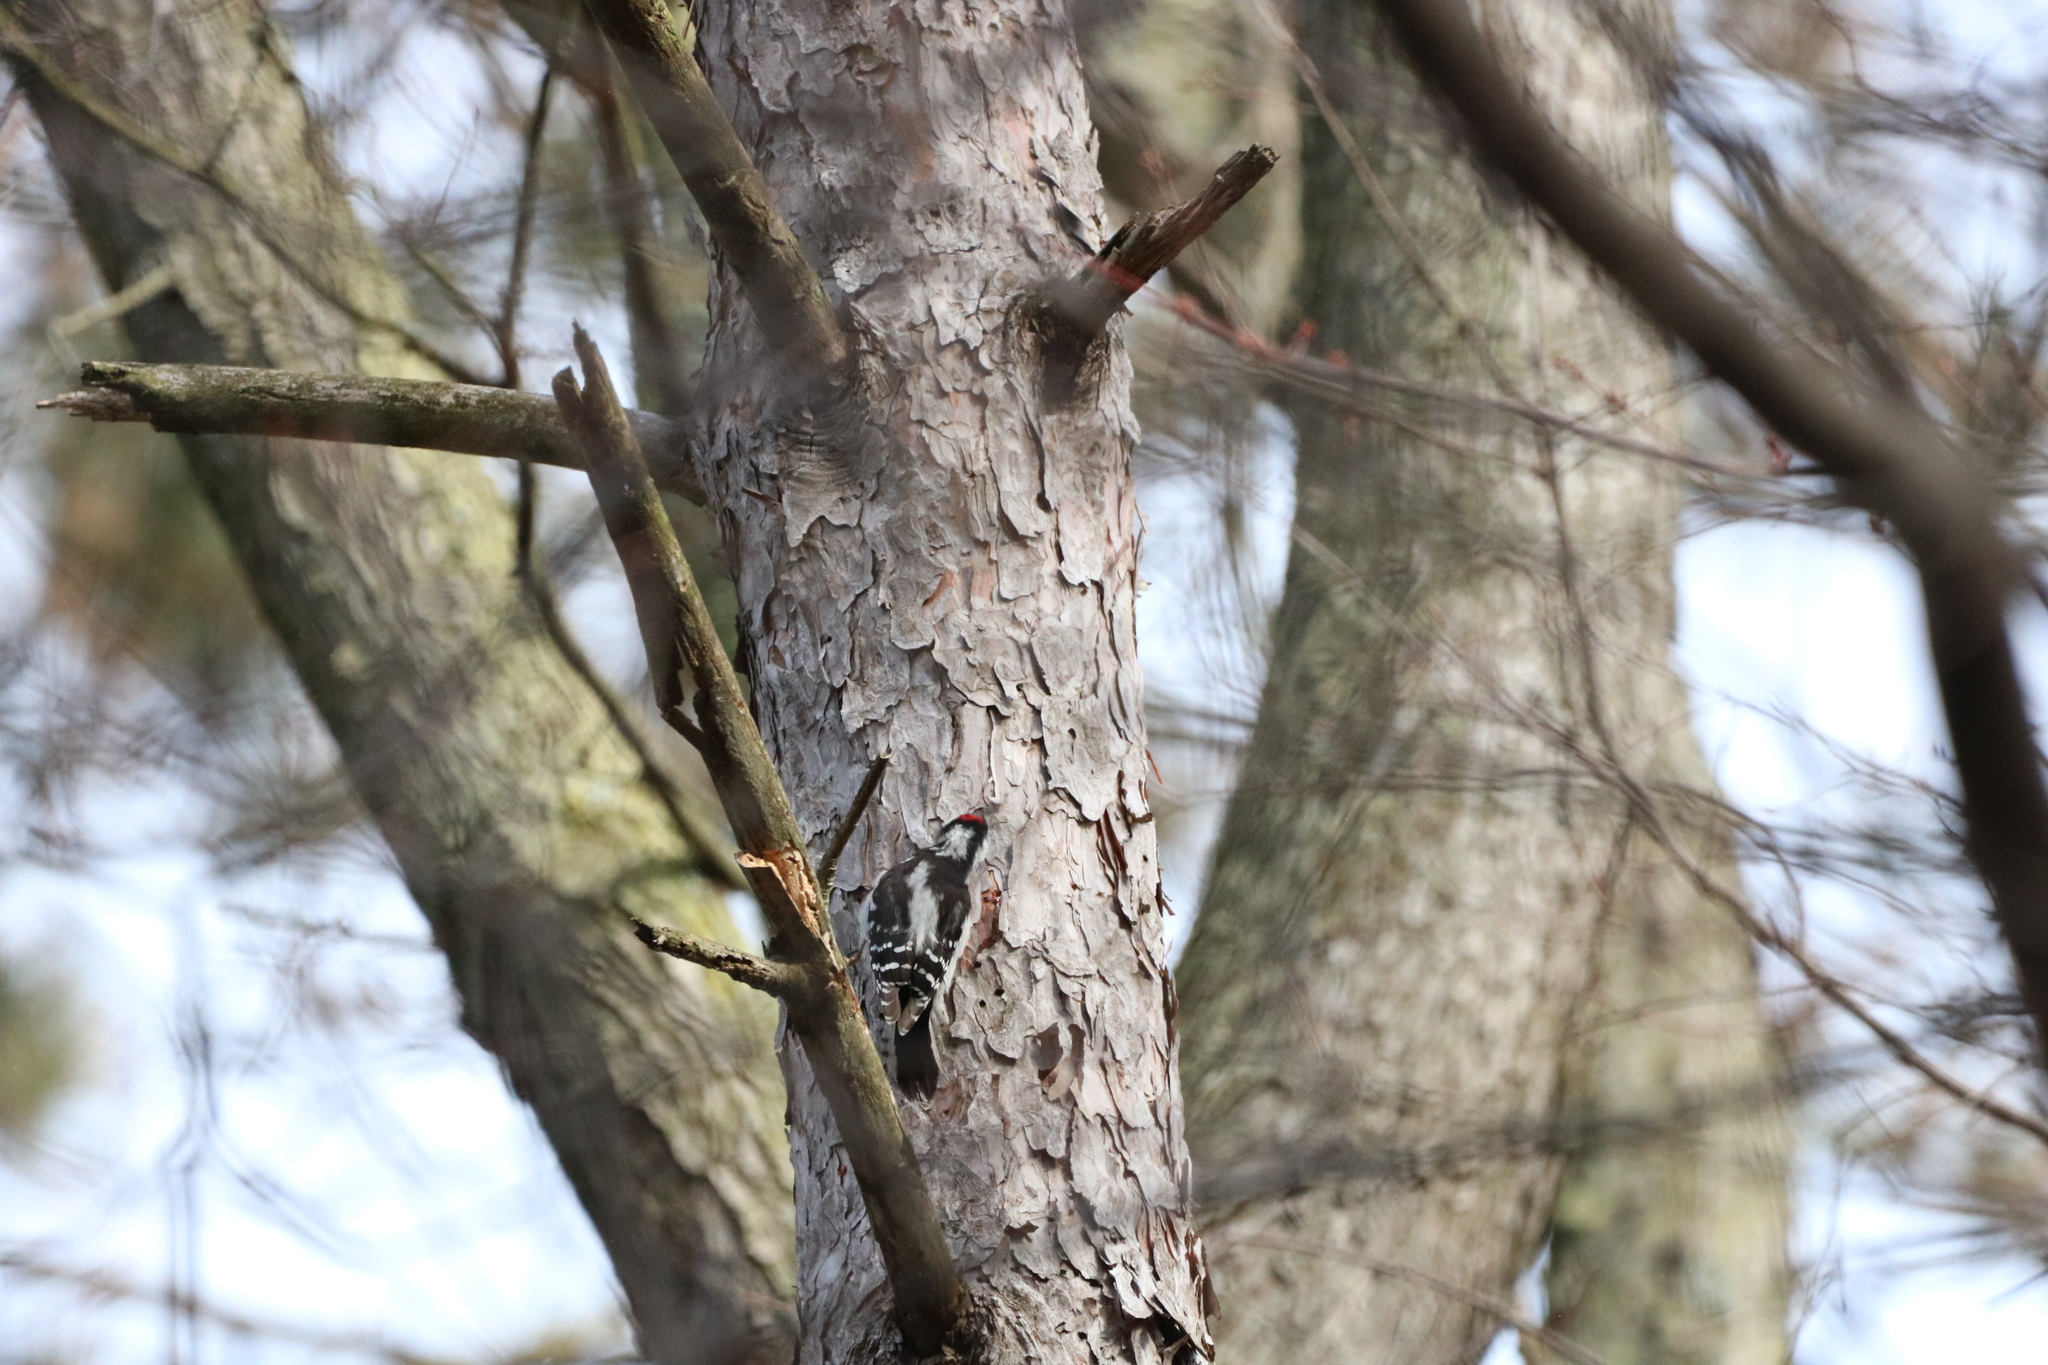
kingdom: Animalia
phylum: Chordata
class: Aves
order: Piciformes
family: Picidae
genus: Dryobates
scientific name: Dryobates pubescens
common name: Downy woodpecker
